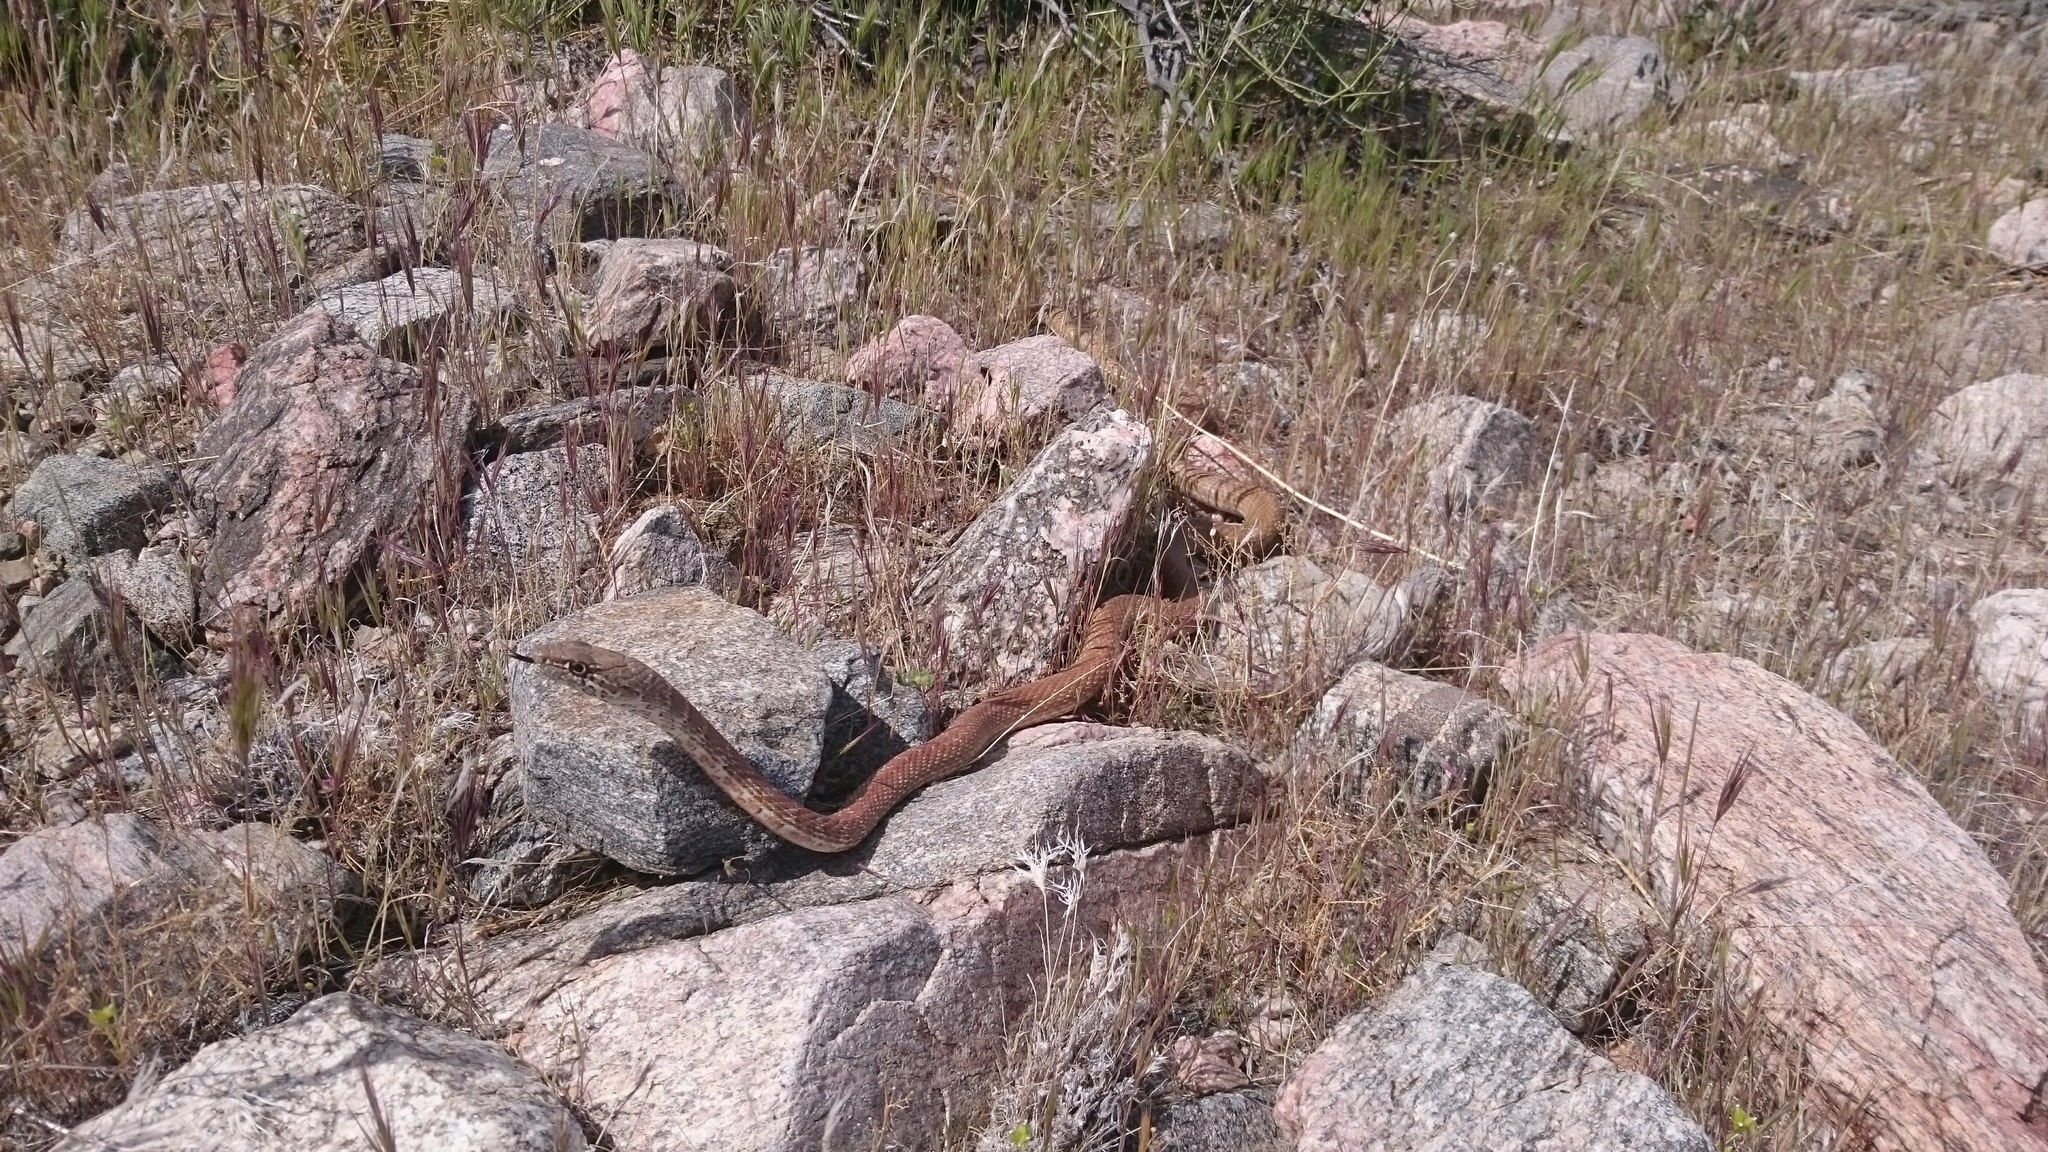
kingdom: Animalia
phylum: Chordata
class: Squamata
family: Colubridae
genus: Masticophis
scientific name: Masticophis flagellum
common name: Coachwhip
